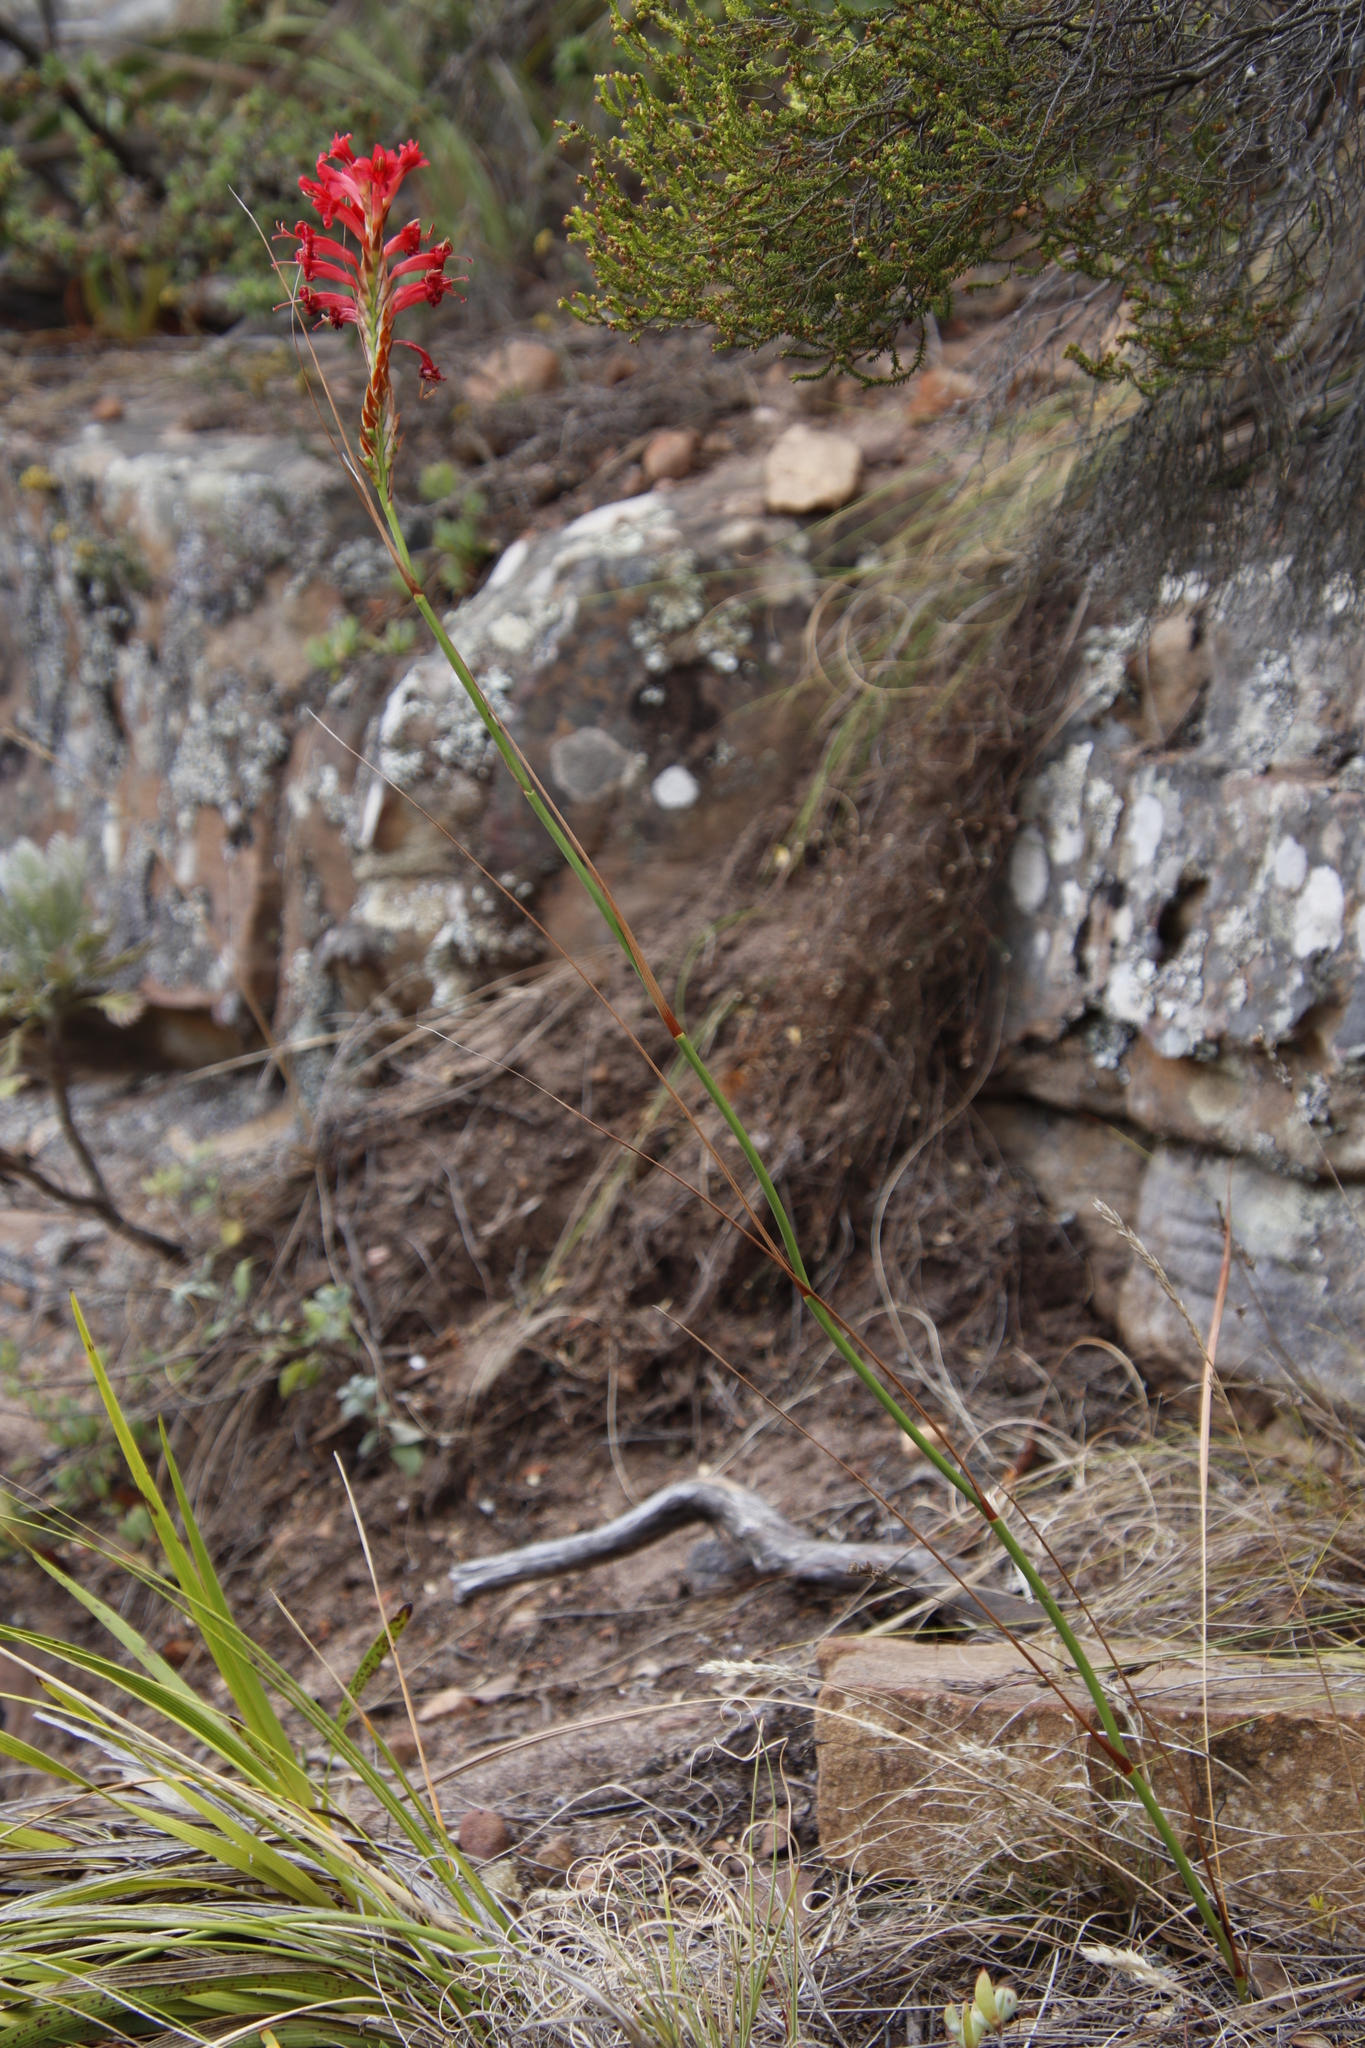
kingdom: Plantae
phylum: Tracheophyta
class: Liliopsida
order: Asparagales
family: Iridaceae
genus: Tritoniopsis
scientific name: Tritoniopsis triticea
